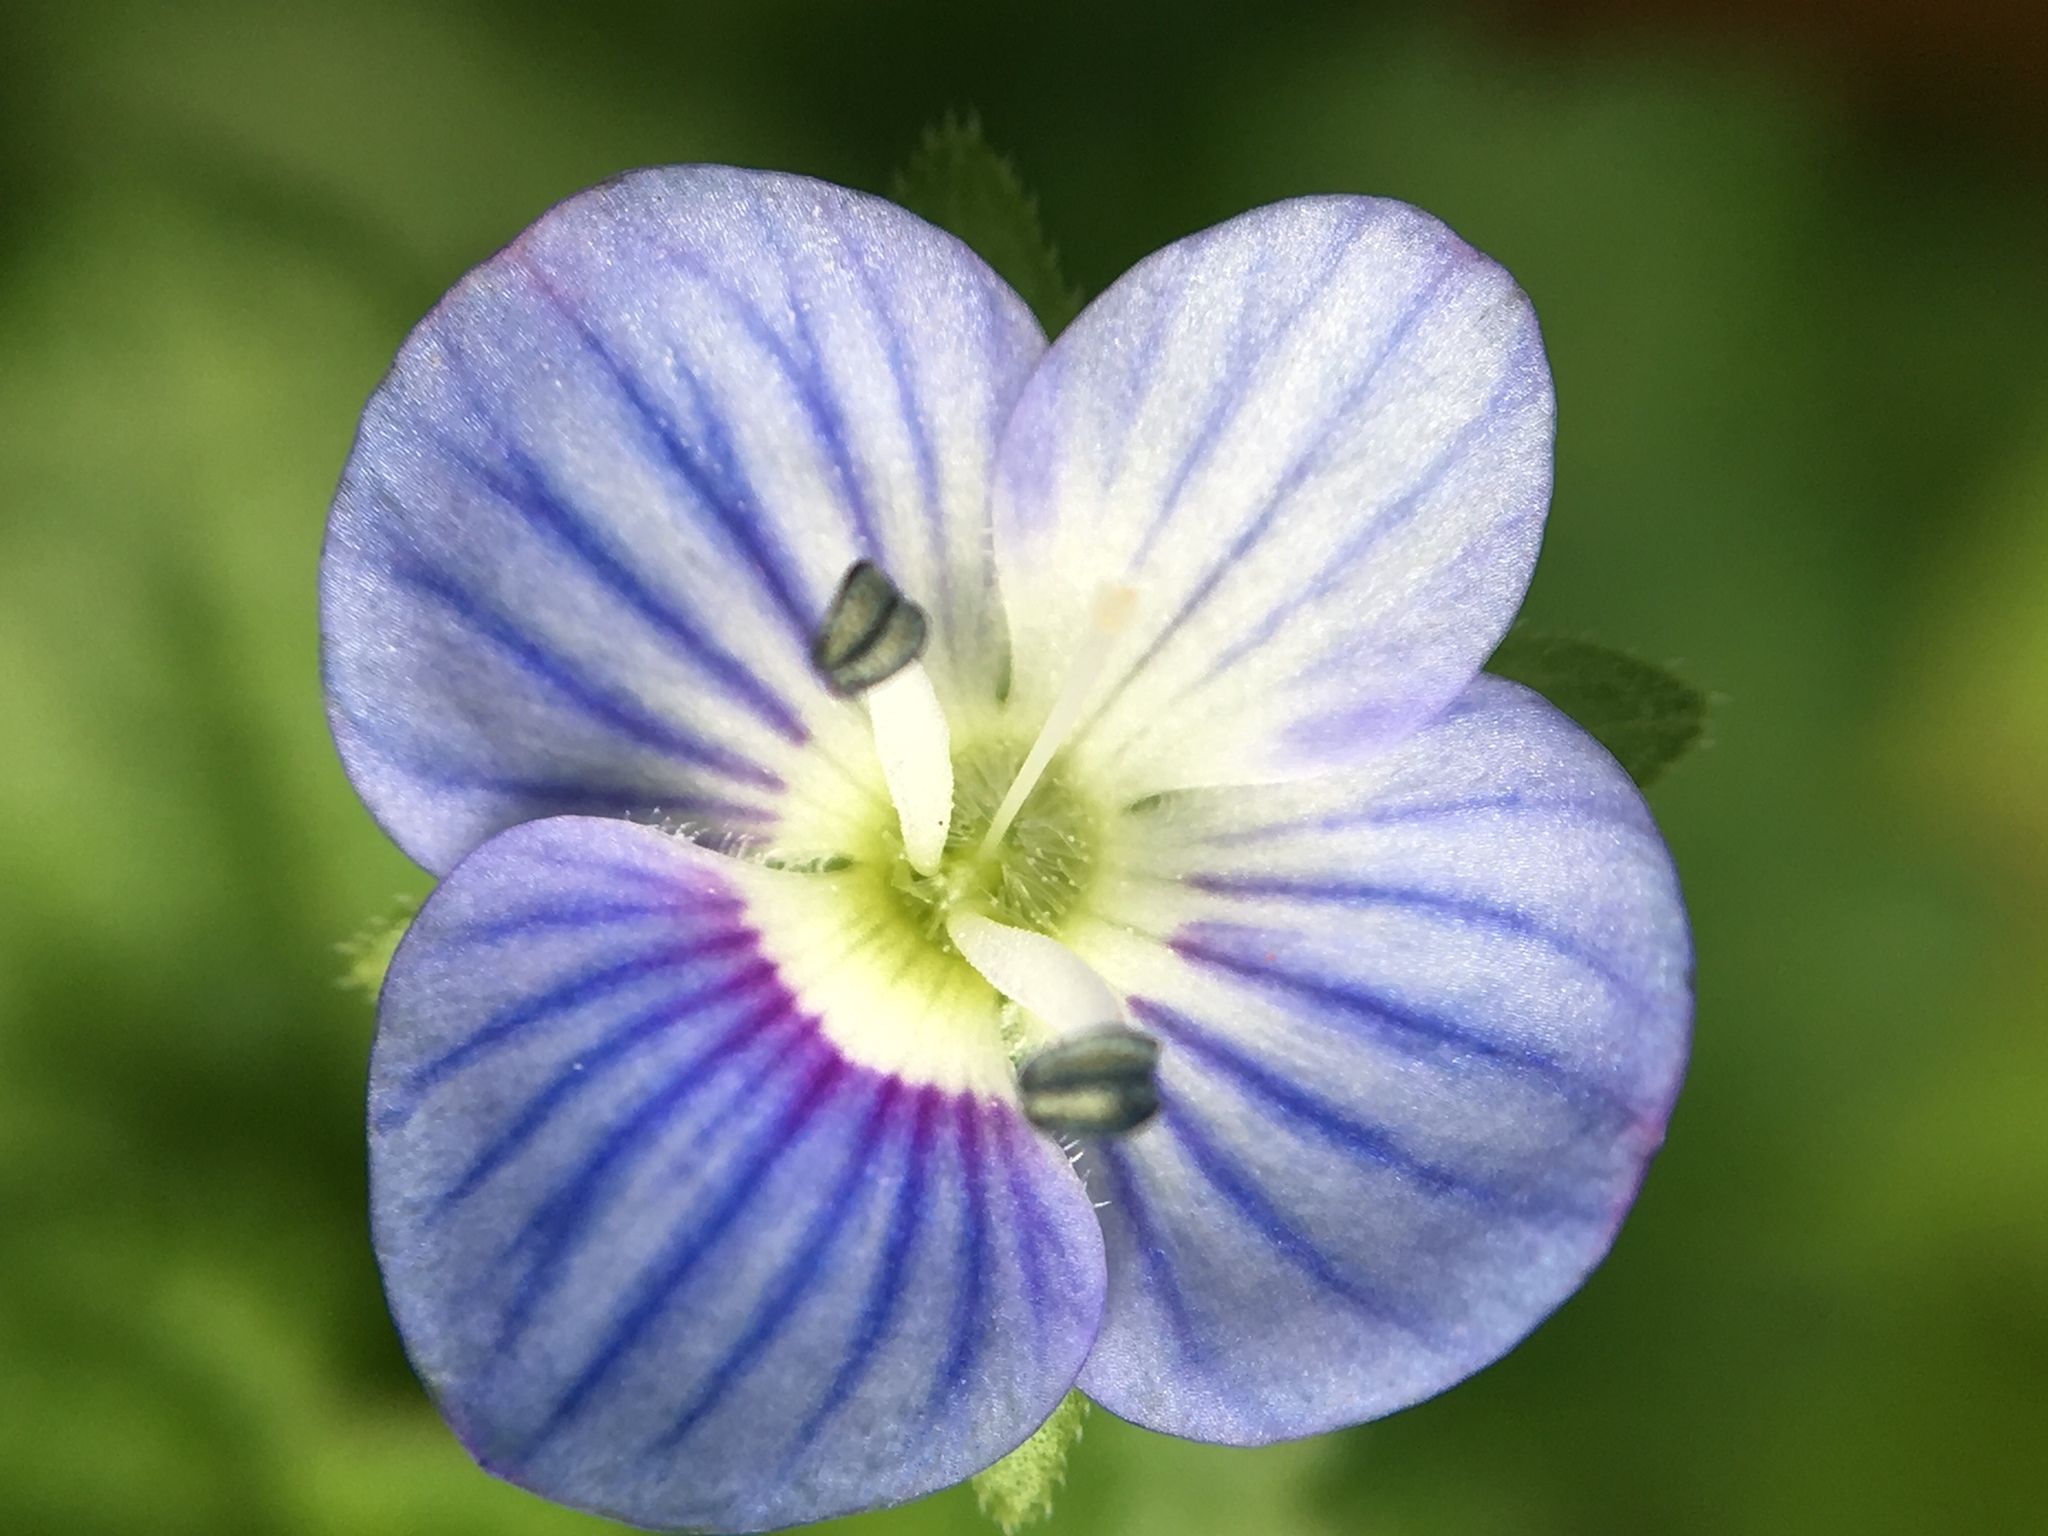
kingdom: Plantae
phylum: Tracheophyta
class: Magnoliopsida
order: Lamiales
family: Plantaginaceae
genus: Veronica
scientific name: Veronica persica
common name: Common field-speedwell
